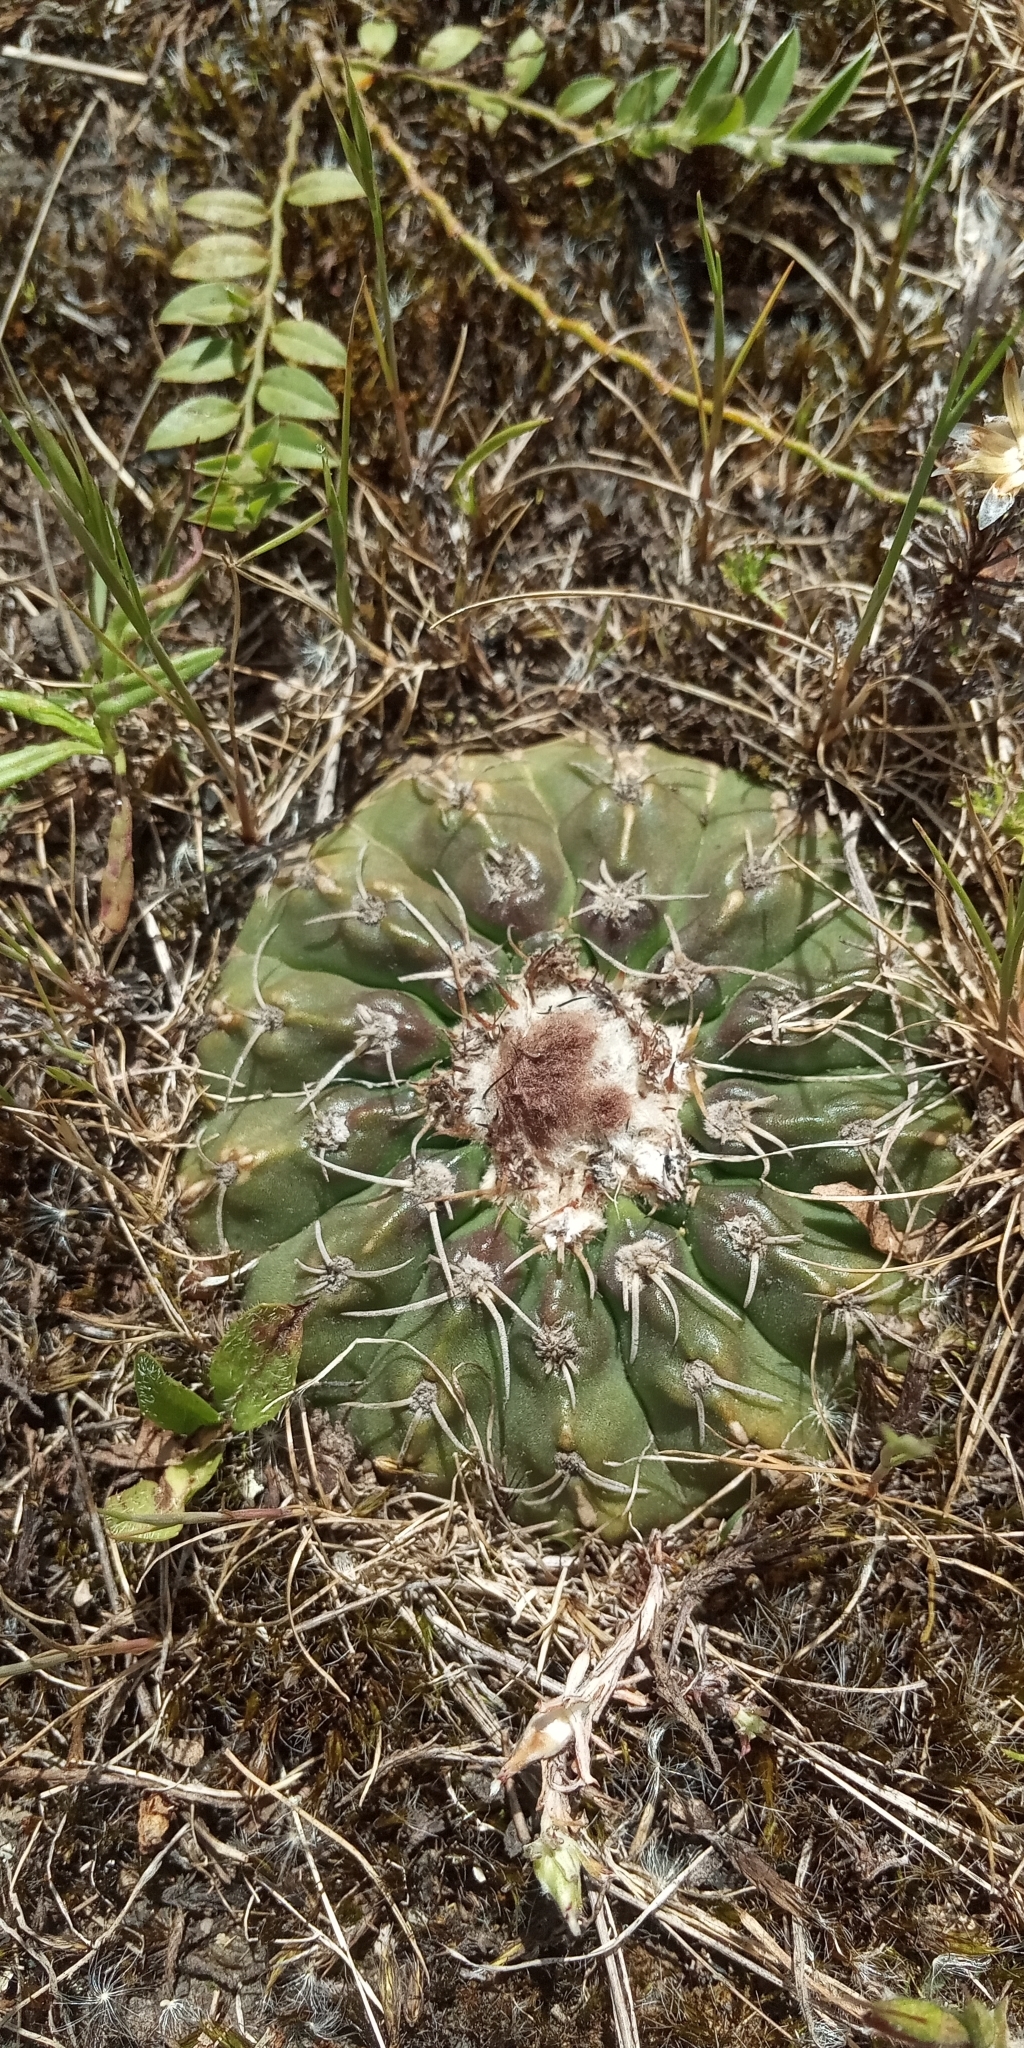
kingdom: Plantae
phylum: Tracheophyta
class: Magnoliopsida
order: Caryophyllales
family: Cactaceae
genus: Parodia
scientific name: Parodia erinacea
